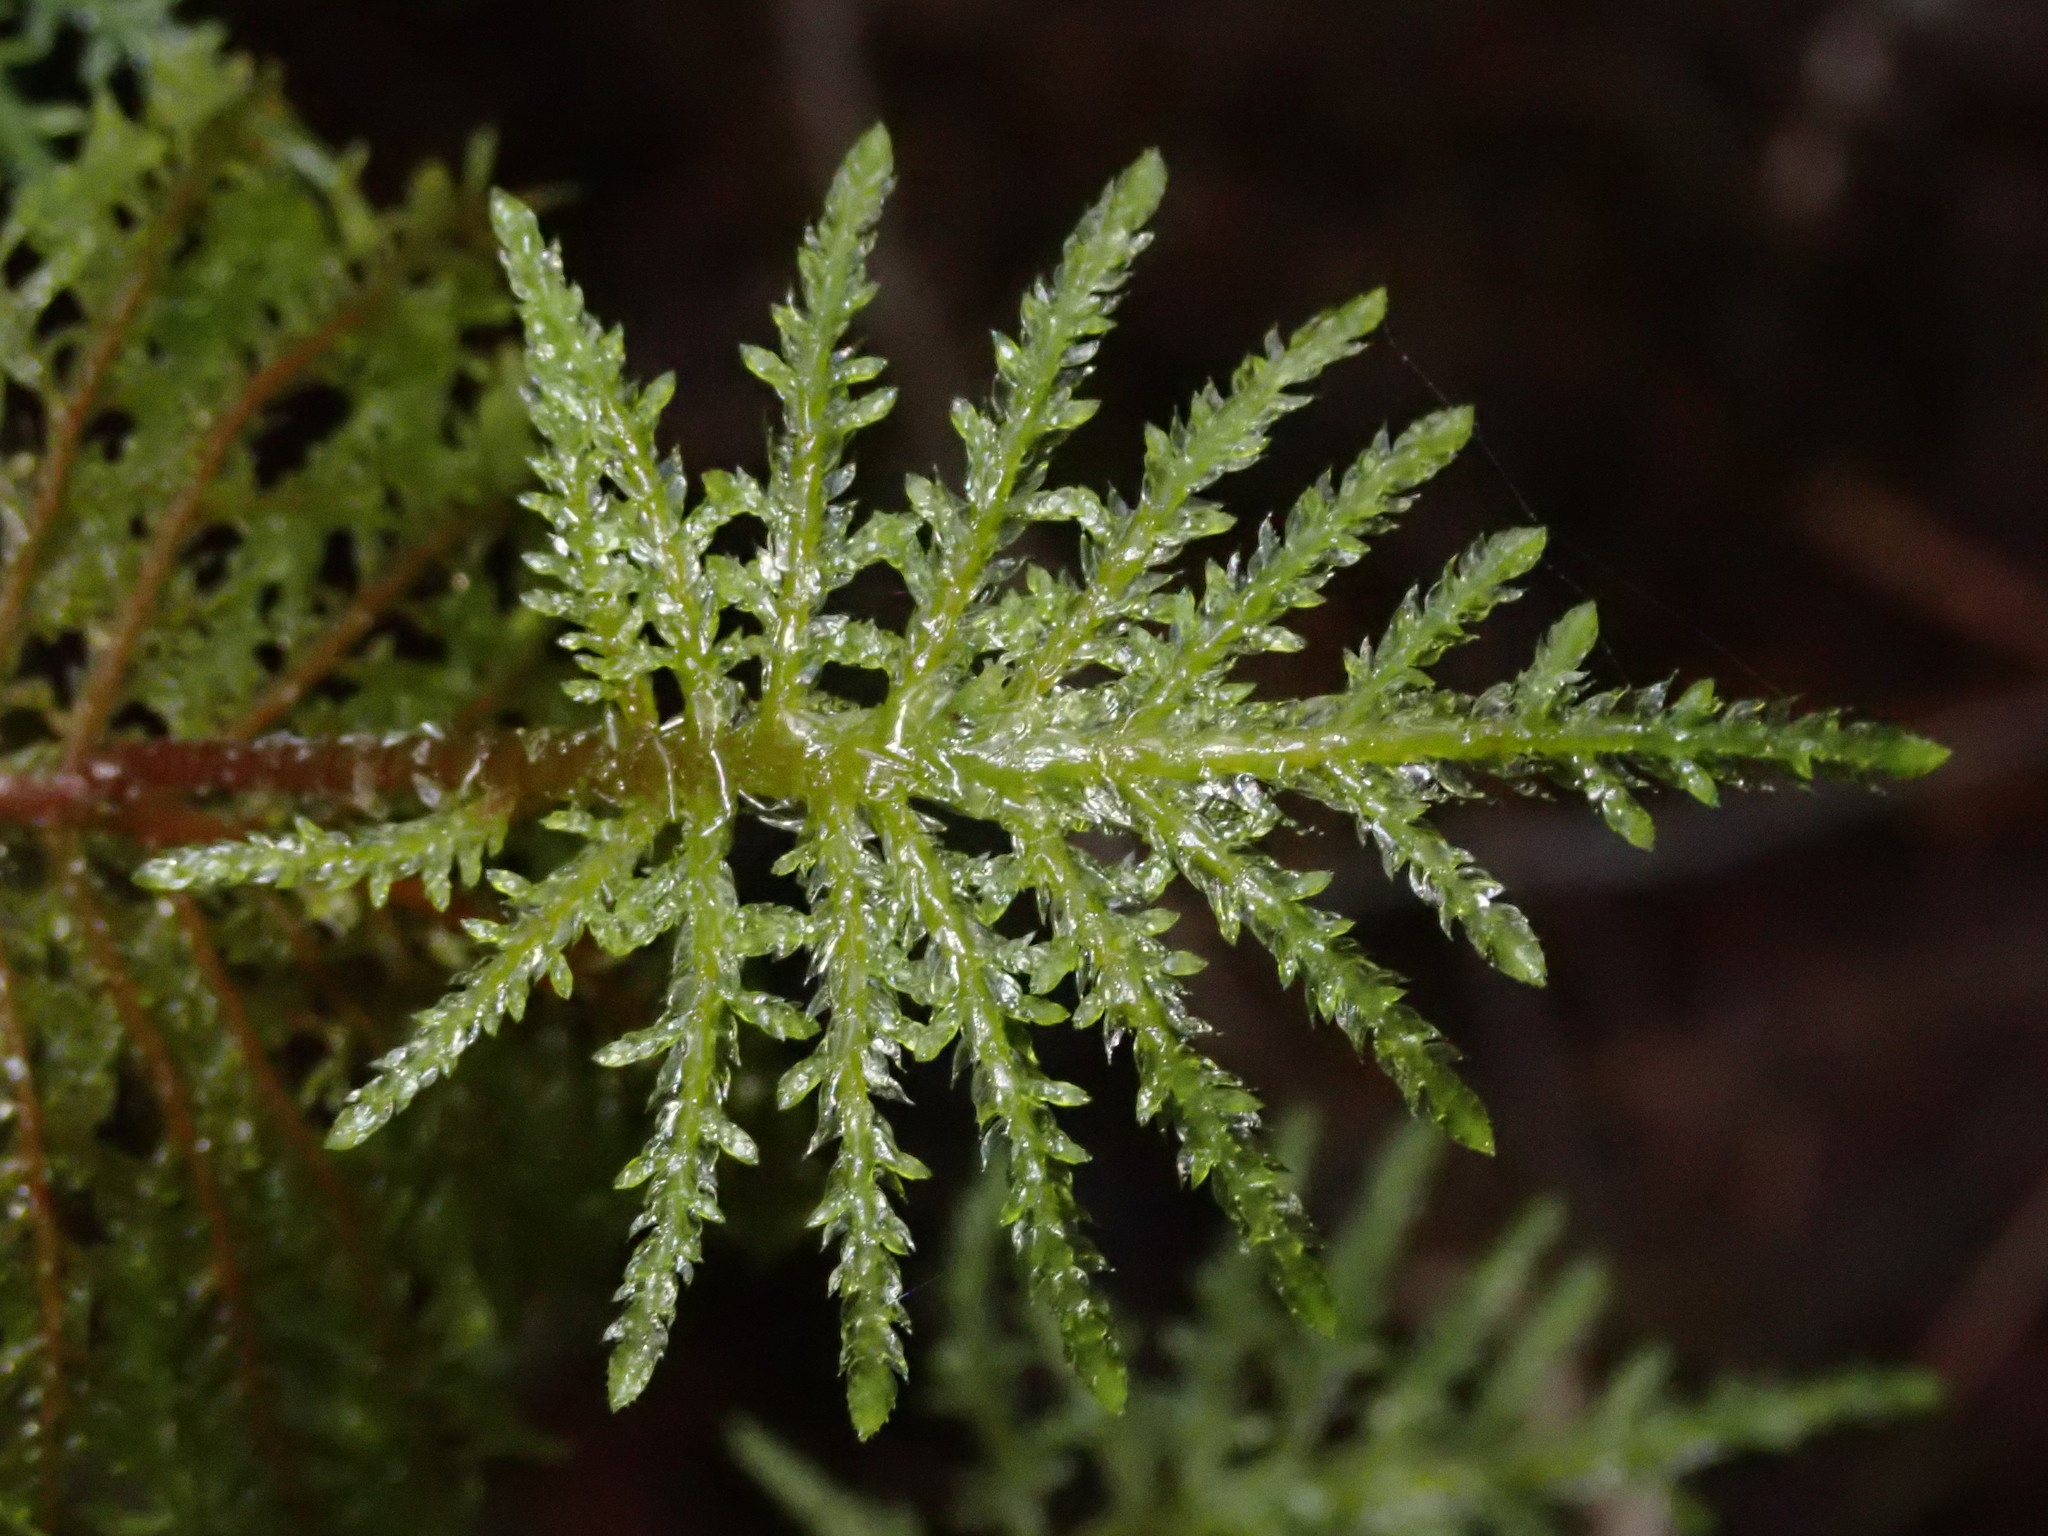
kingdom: Plantae
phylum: Bryophyta
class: Bryopsida
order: Hypnales
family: Hylocomiaceae
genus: Hylocomium
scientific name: Hylocomium splendens
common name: Stairstep moss
